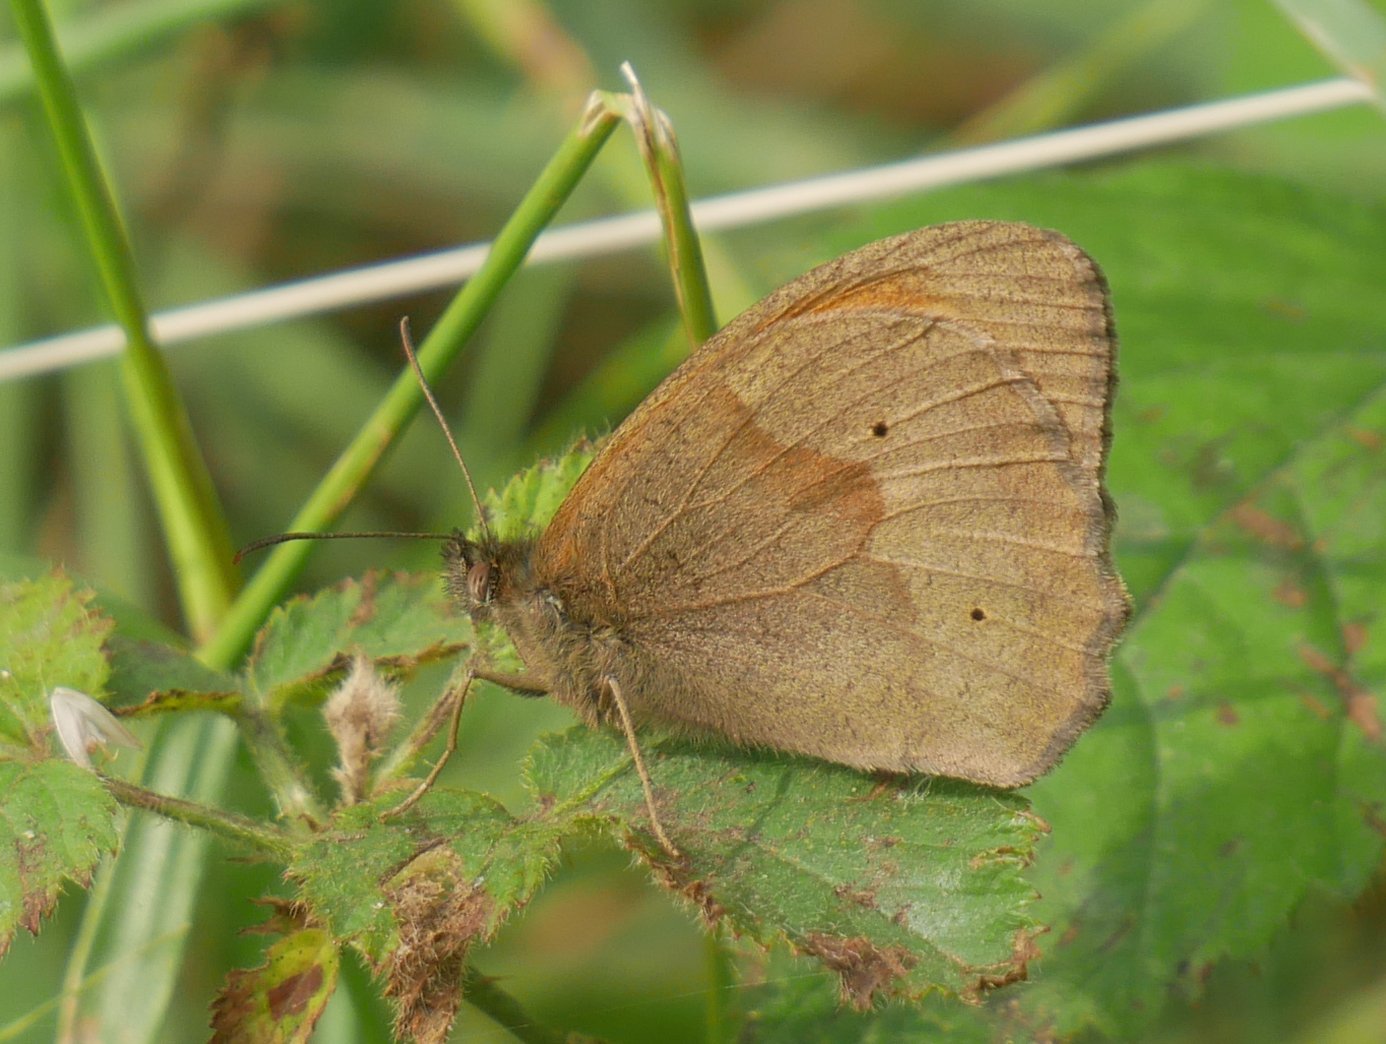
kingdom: Animalia
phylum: Arthropoda
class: Insecta
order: Lepidoptera
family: Nymphalidae
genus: Maniola
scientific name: Maniola jurtina
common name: Meadow brown
